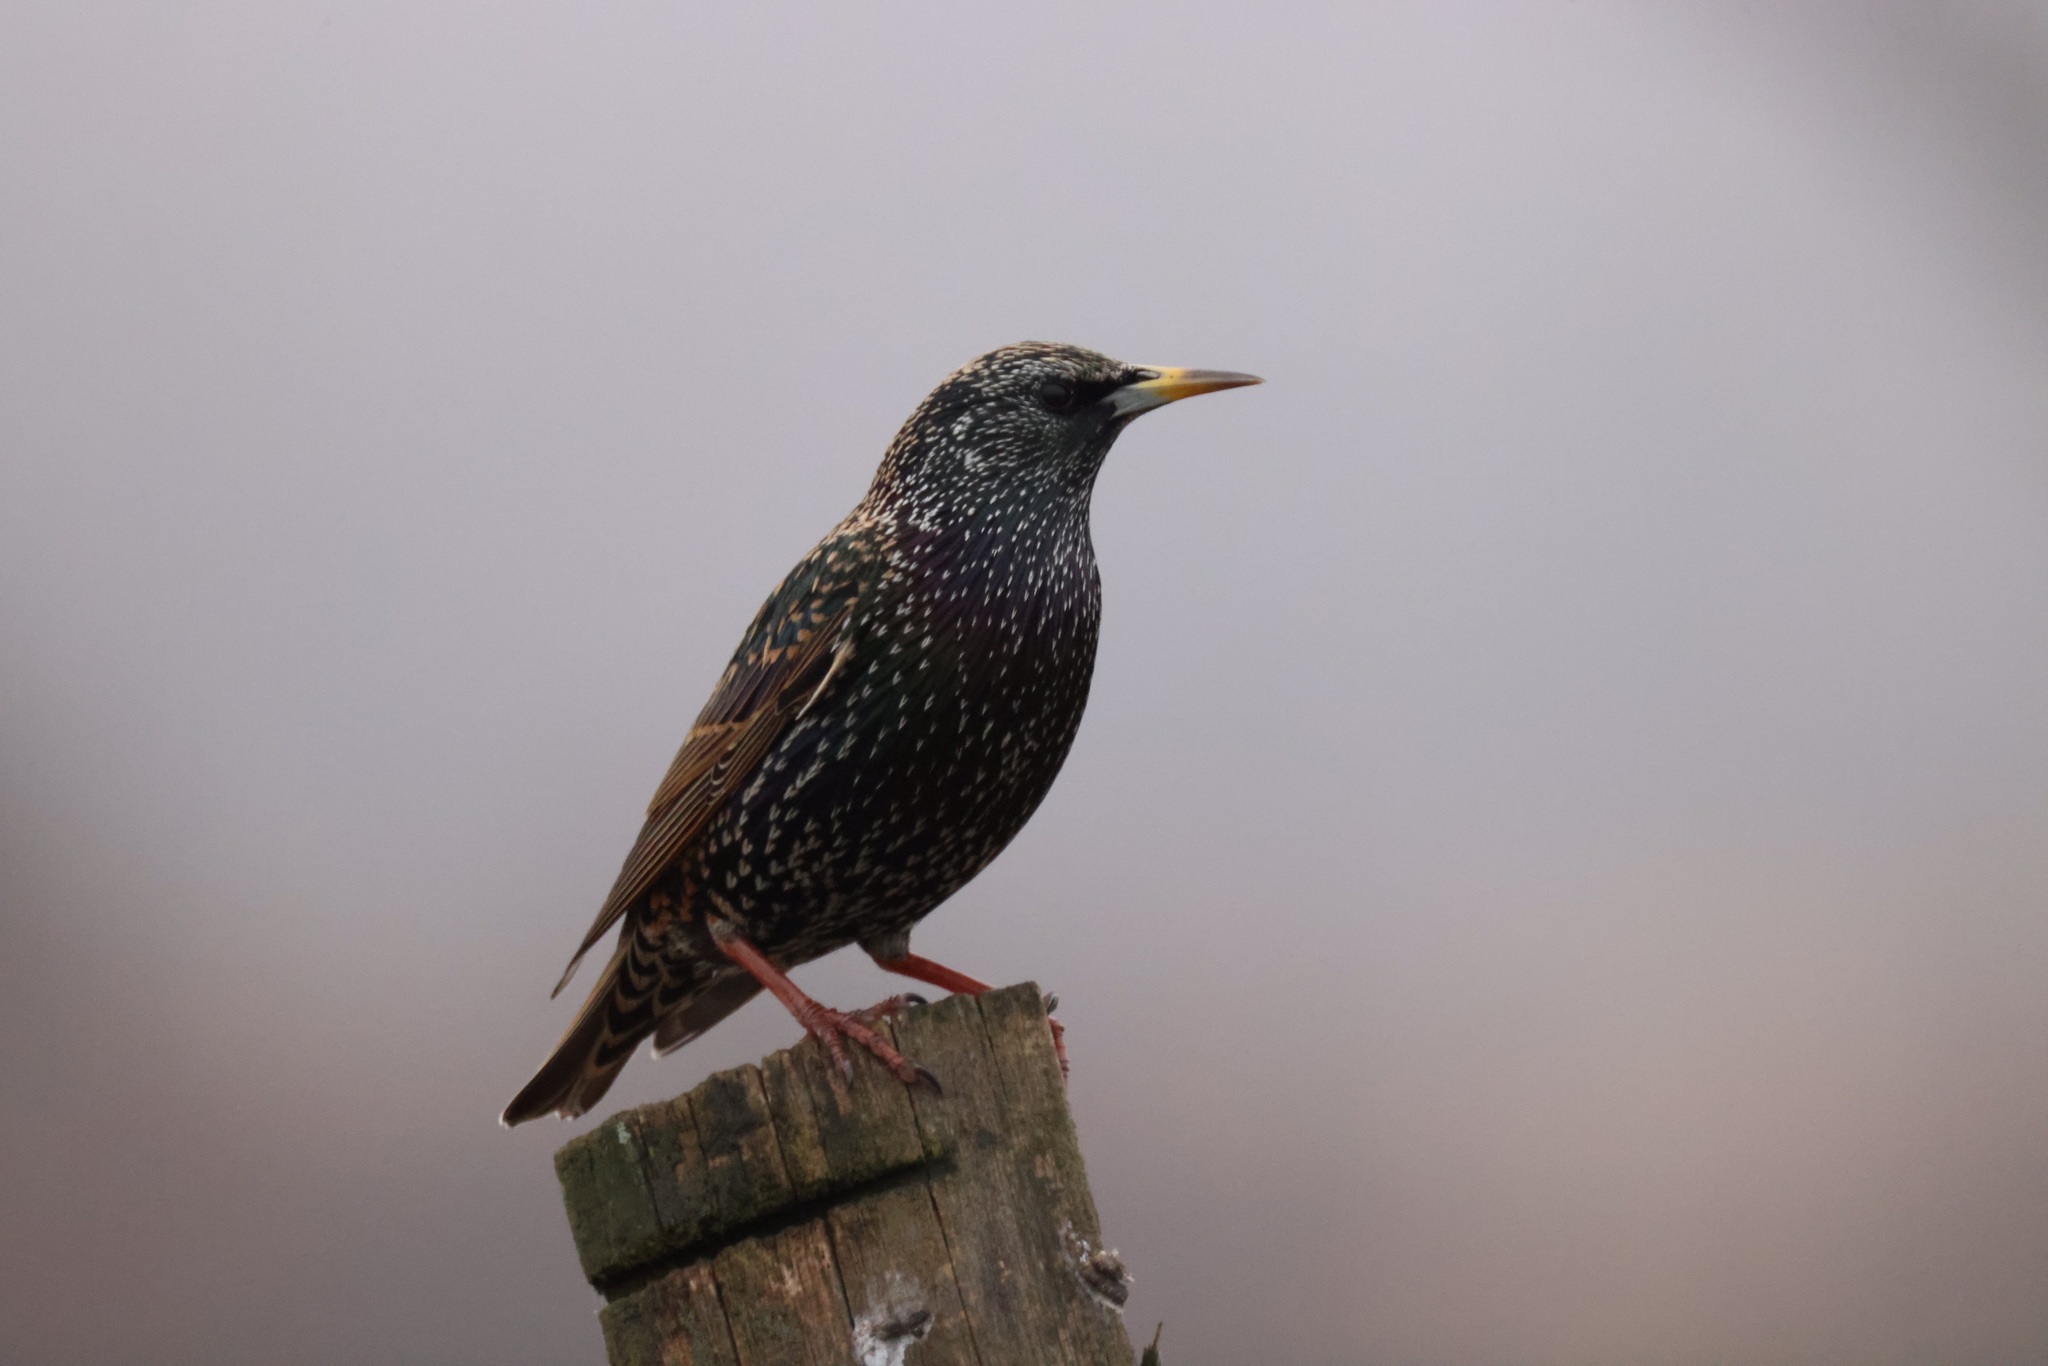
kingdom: Animalia
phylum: Chordata
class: Aves
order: Passeriformes
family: Sturnidae
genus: Sturnus
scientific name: Sturnus vulgaris
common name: Common starling
